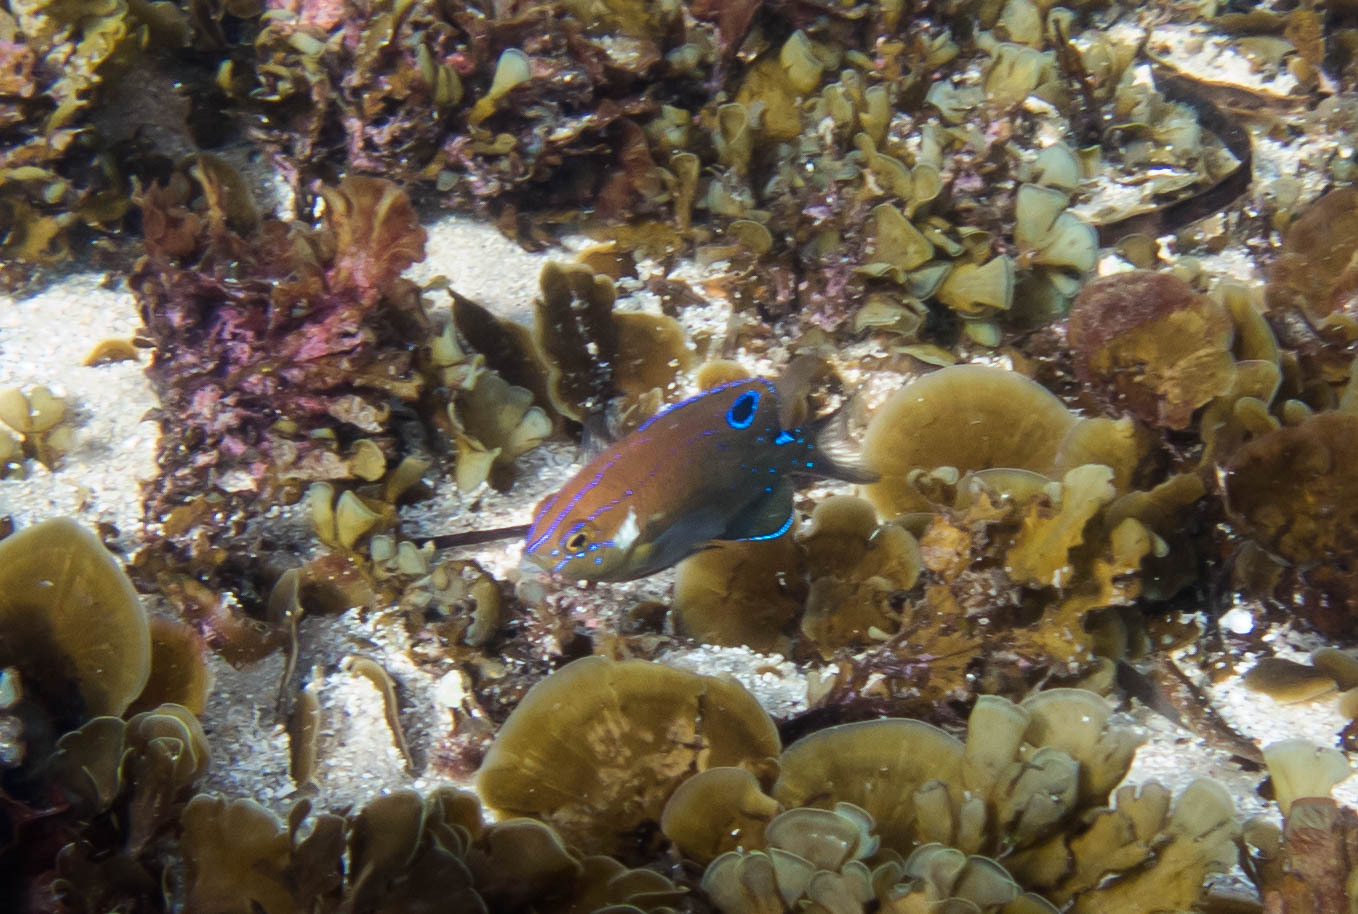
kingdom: Animalia
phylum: Chordata
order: Perciformes
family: Pomacentridae
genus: Parma
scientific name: Parma microlepis
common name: White-ear
